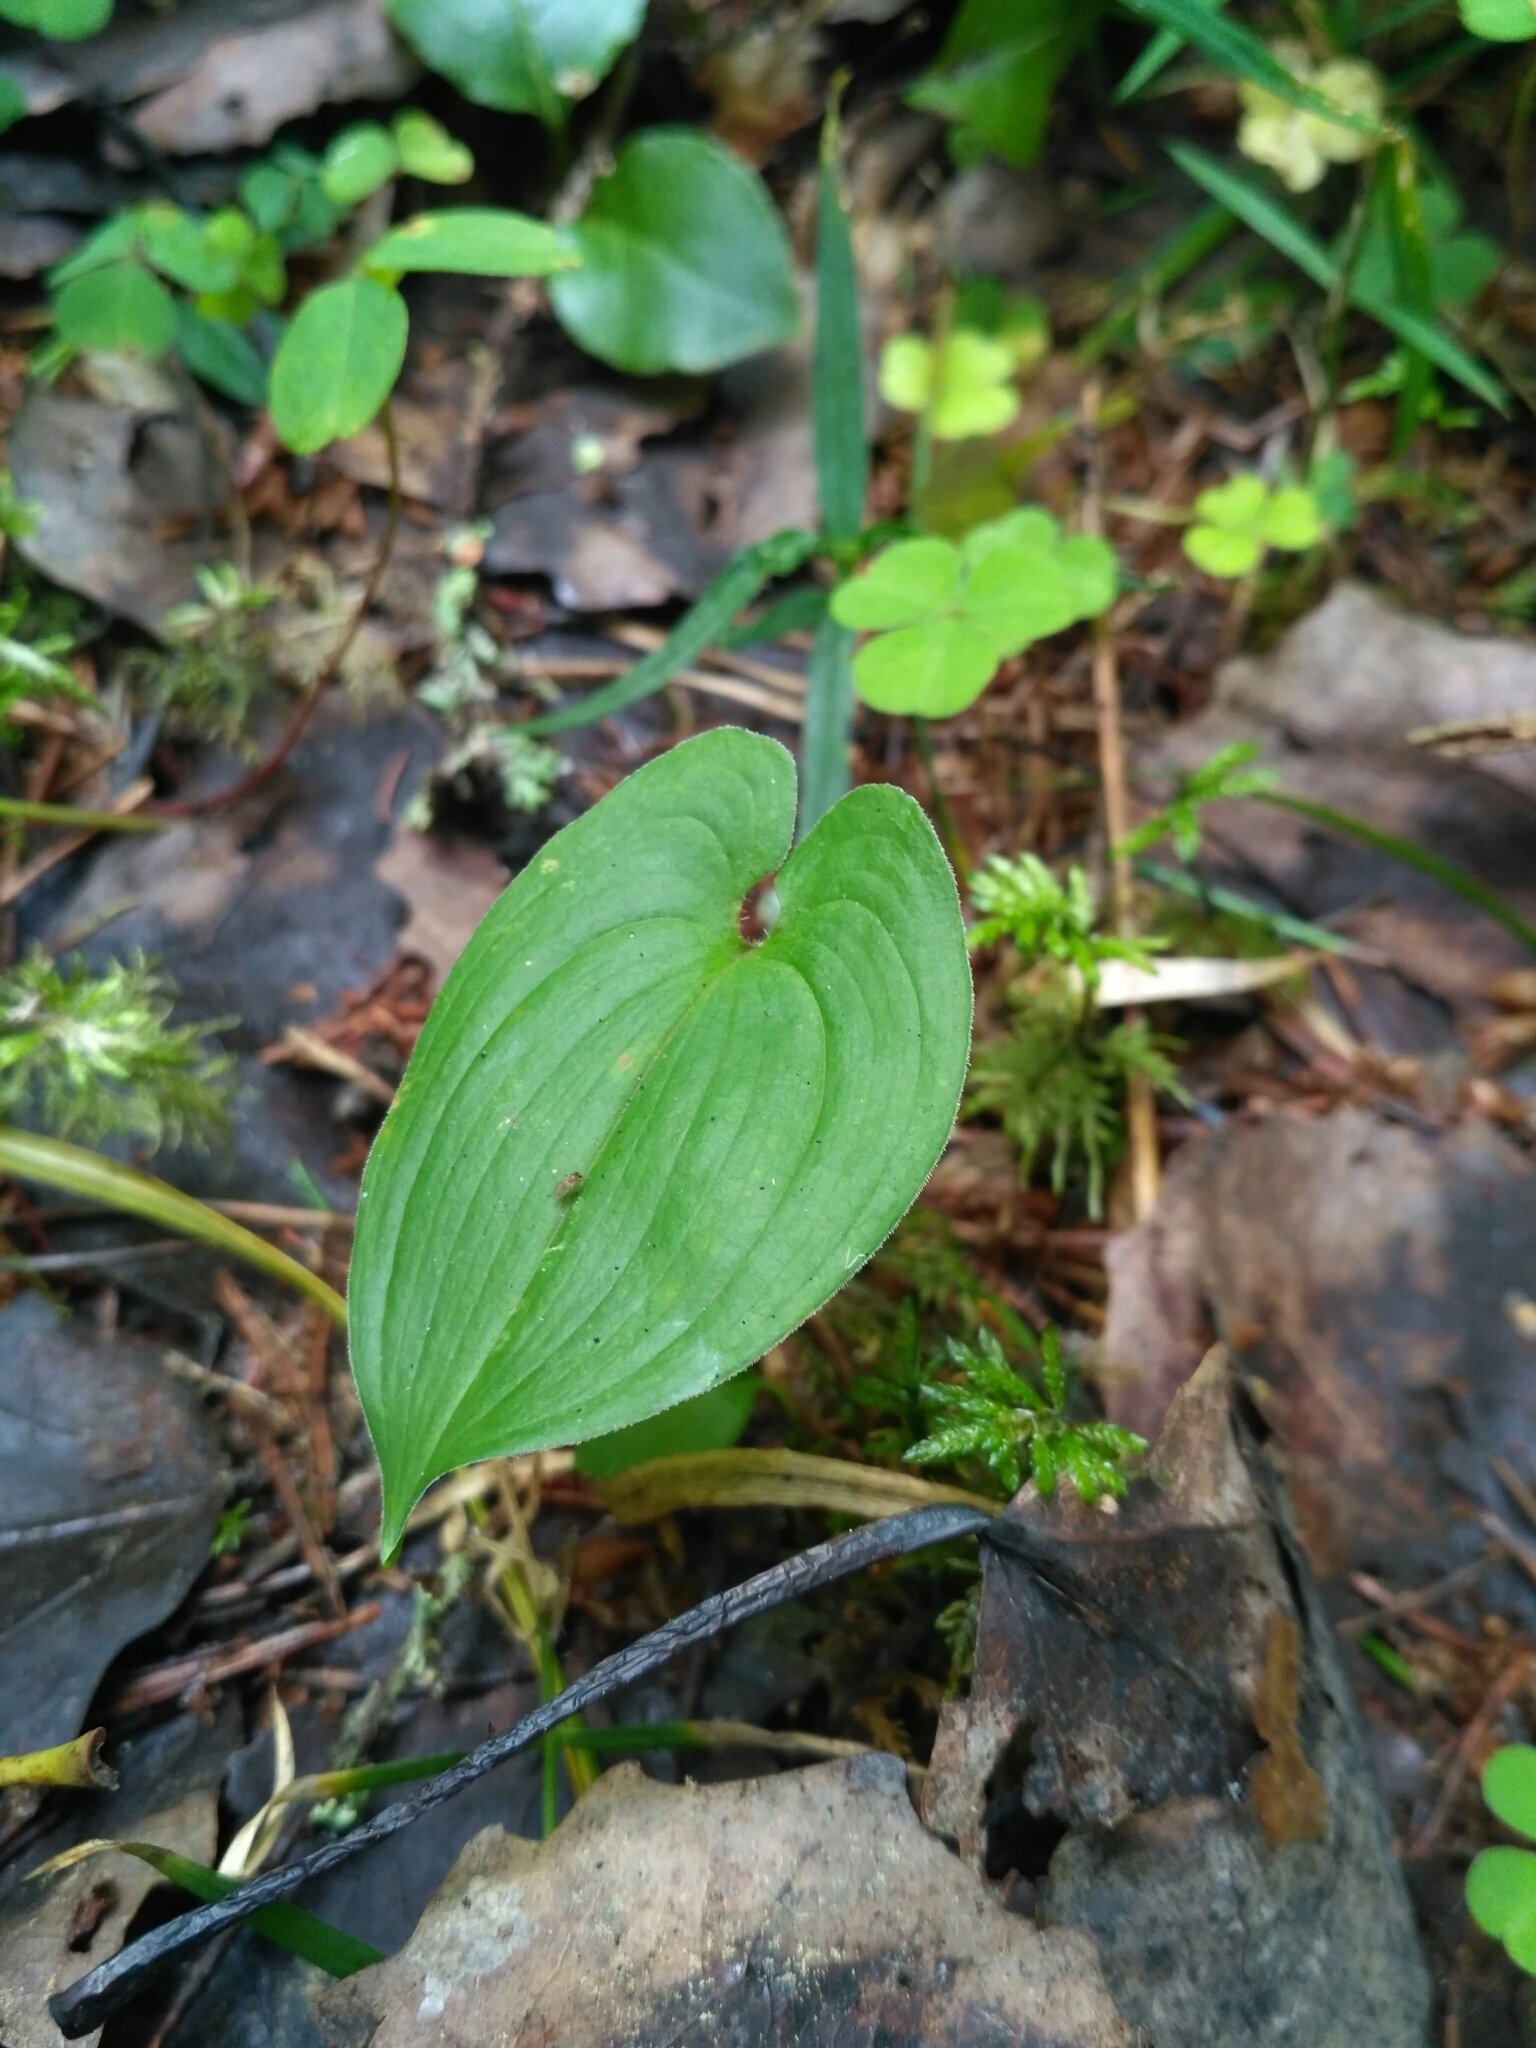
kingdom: Plantae
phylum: Tracheophyta
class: Liliopsida
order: Asparagales
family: Asparagaceae
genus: Maianthemum
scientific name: Maianthemum bifolium
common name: May lily
